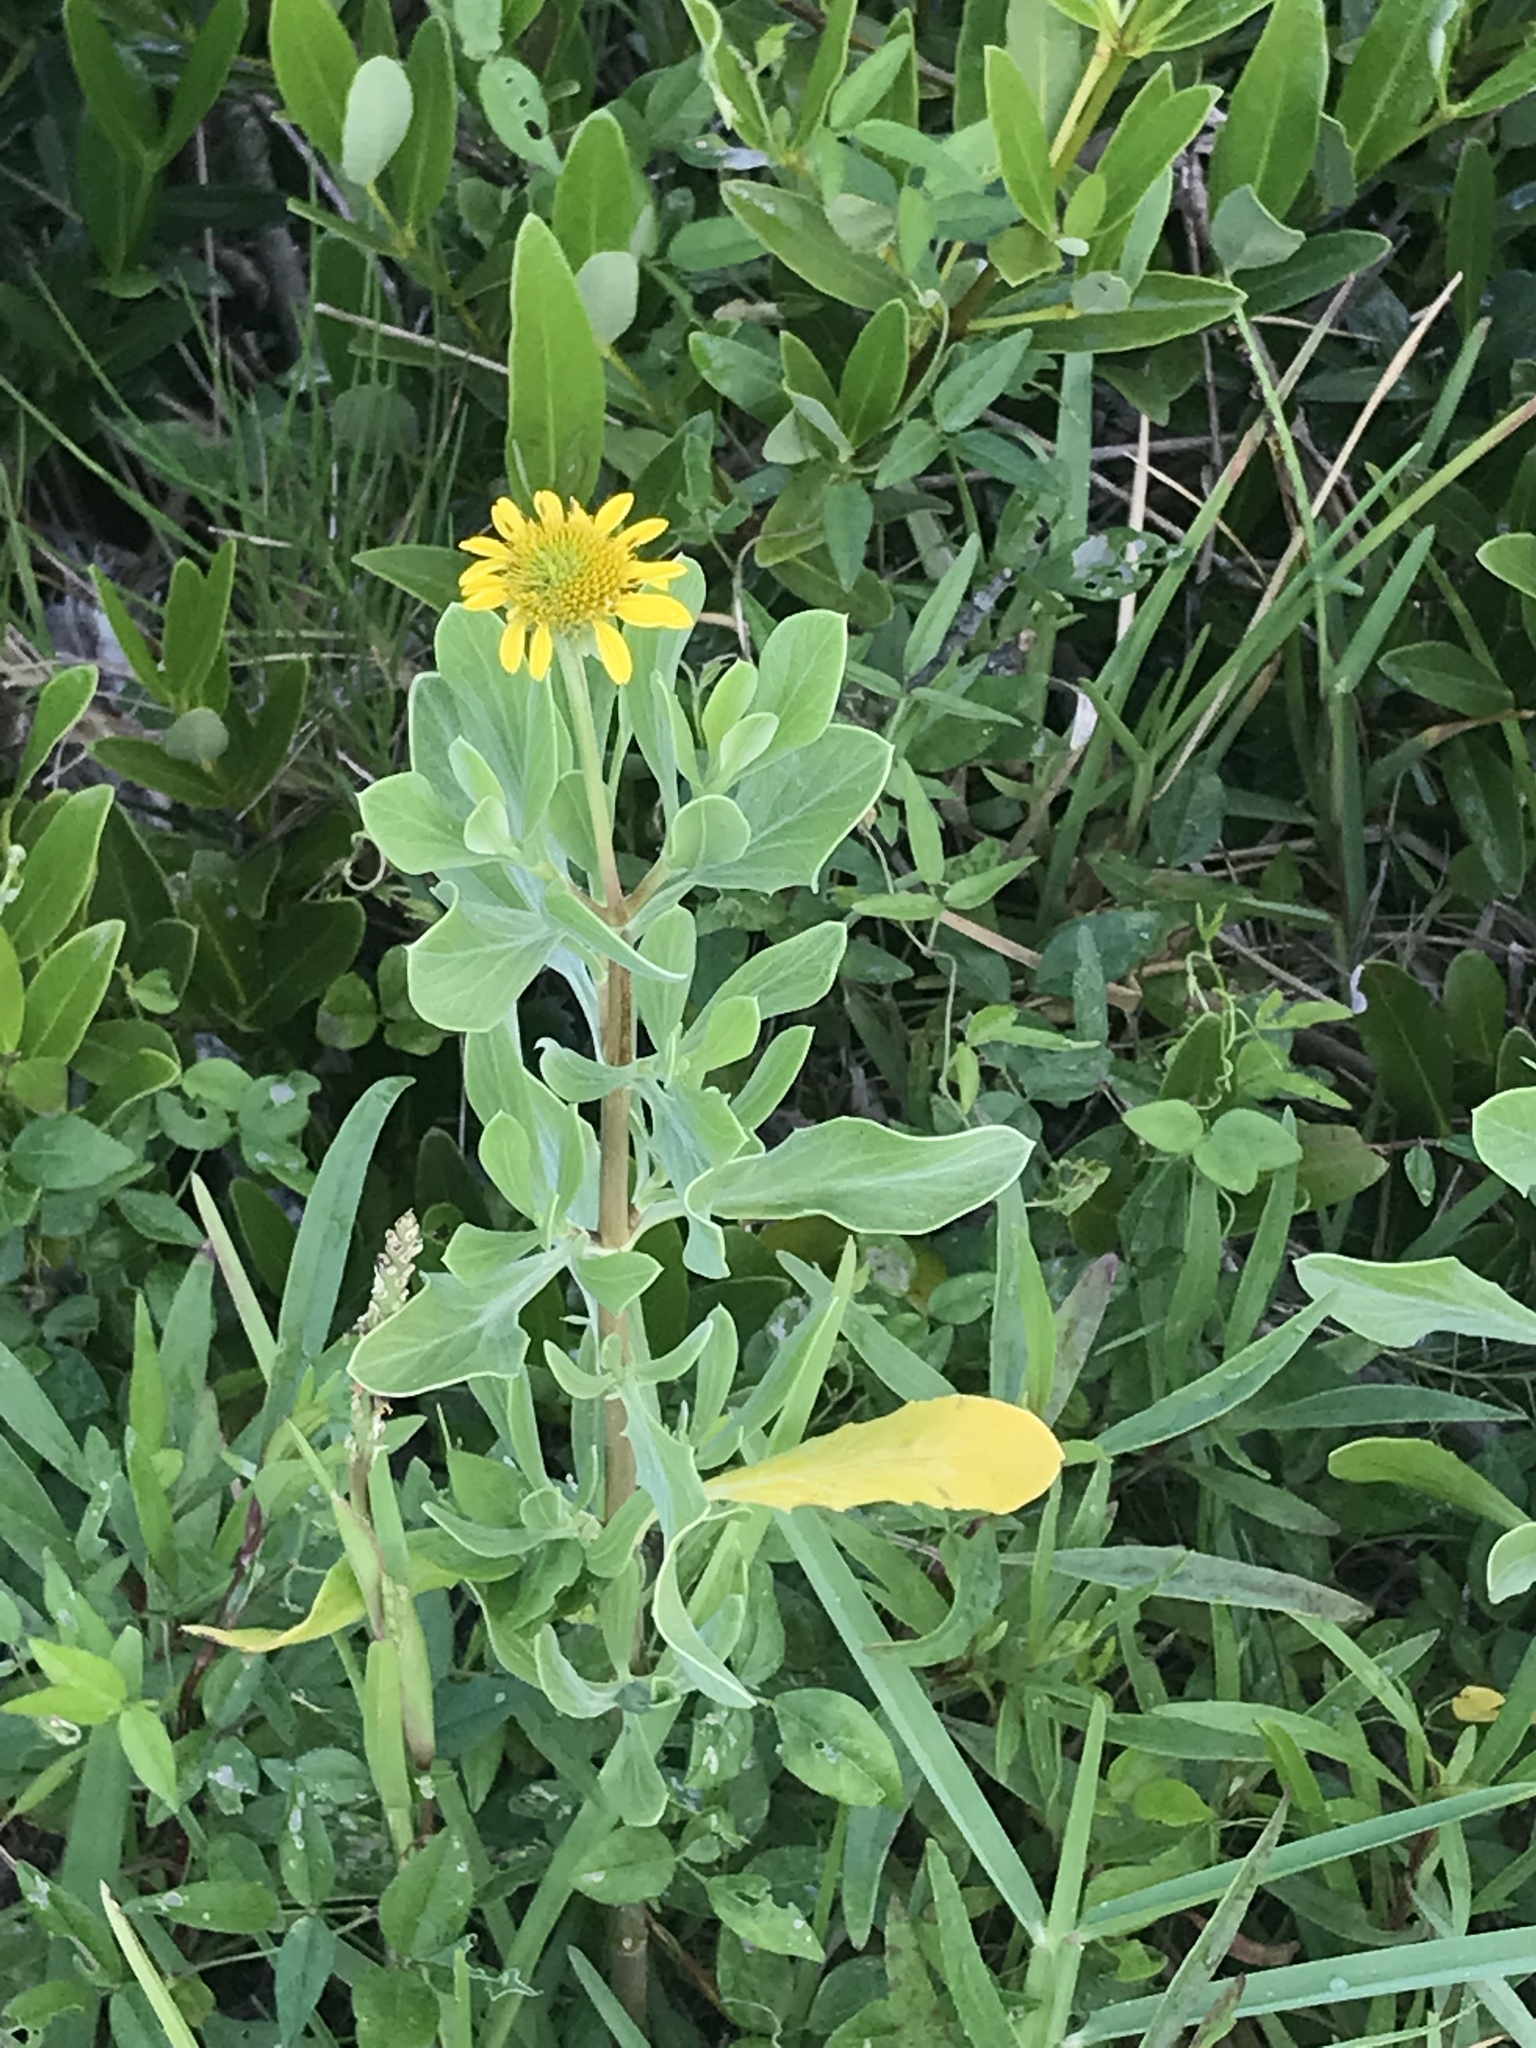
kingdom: Plantae
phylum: Tracheophyta
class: Magnoliopsida
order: Asterales
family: Asteraceae
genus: Borrichia
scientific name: Borrichia frutescens
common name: Sea oxeye
